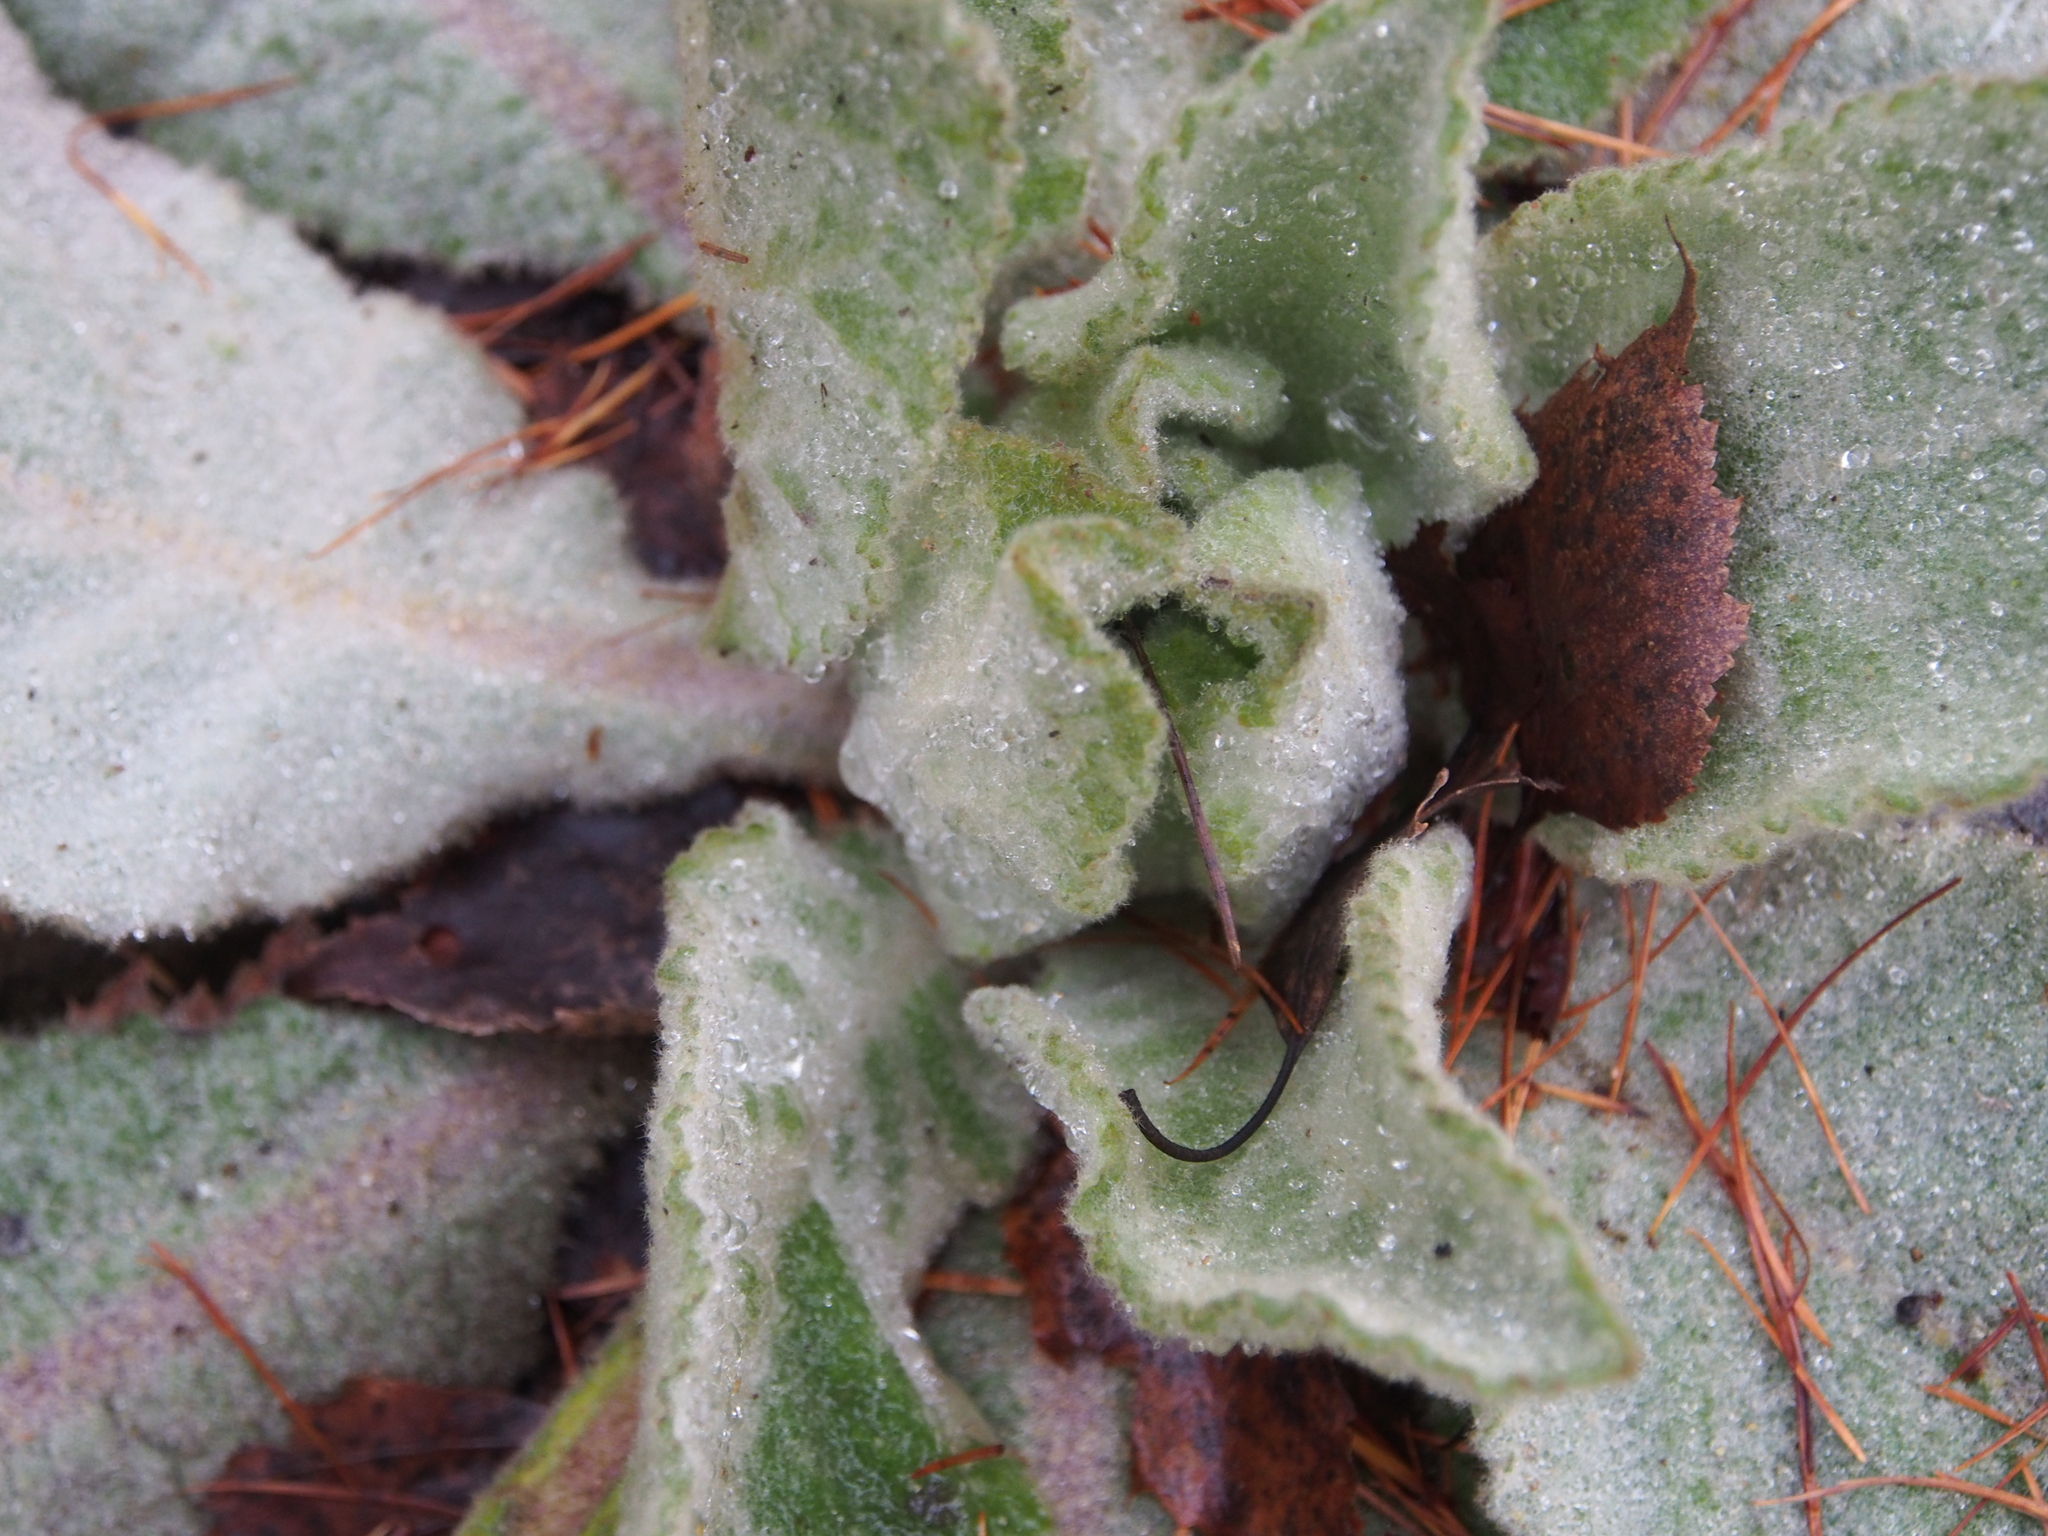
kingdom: Plantae
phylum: Tracheophyta
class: Magnoliopsida
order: Lamiales
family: Scrophulariaceae
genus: Verbascum
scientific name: Verbascum thapsus
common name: Common mullein
